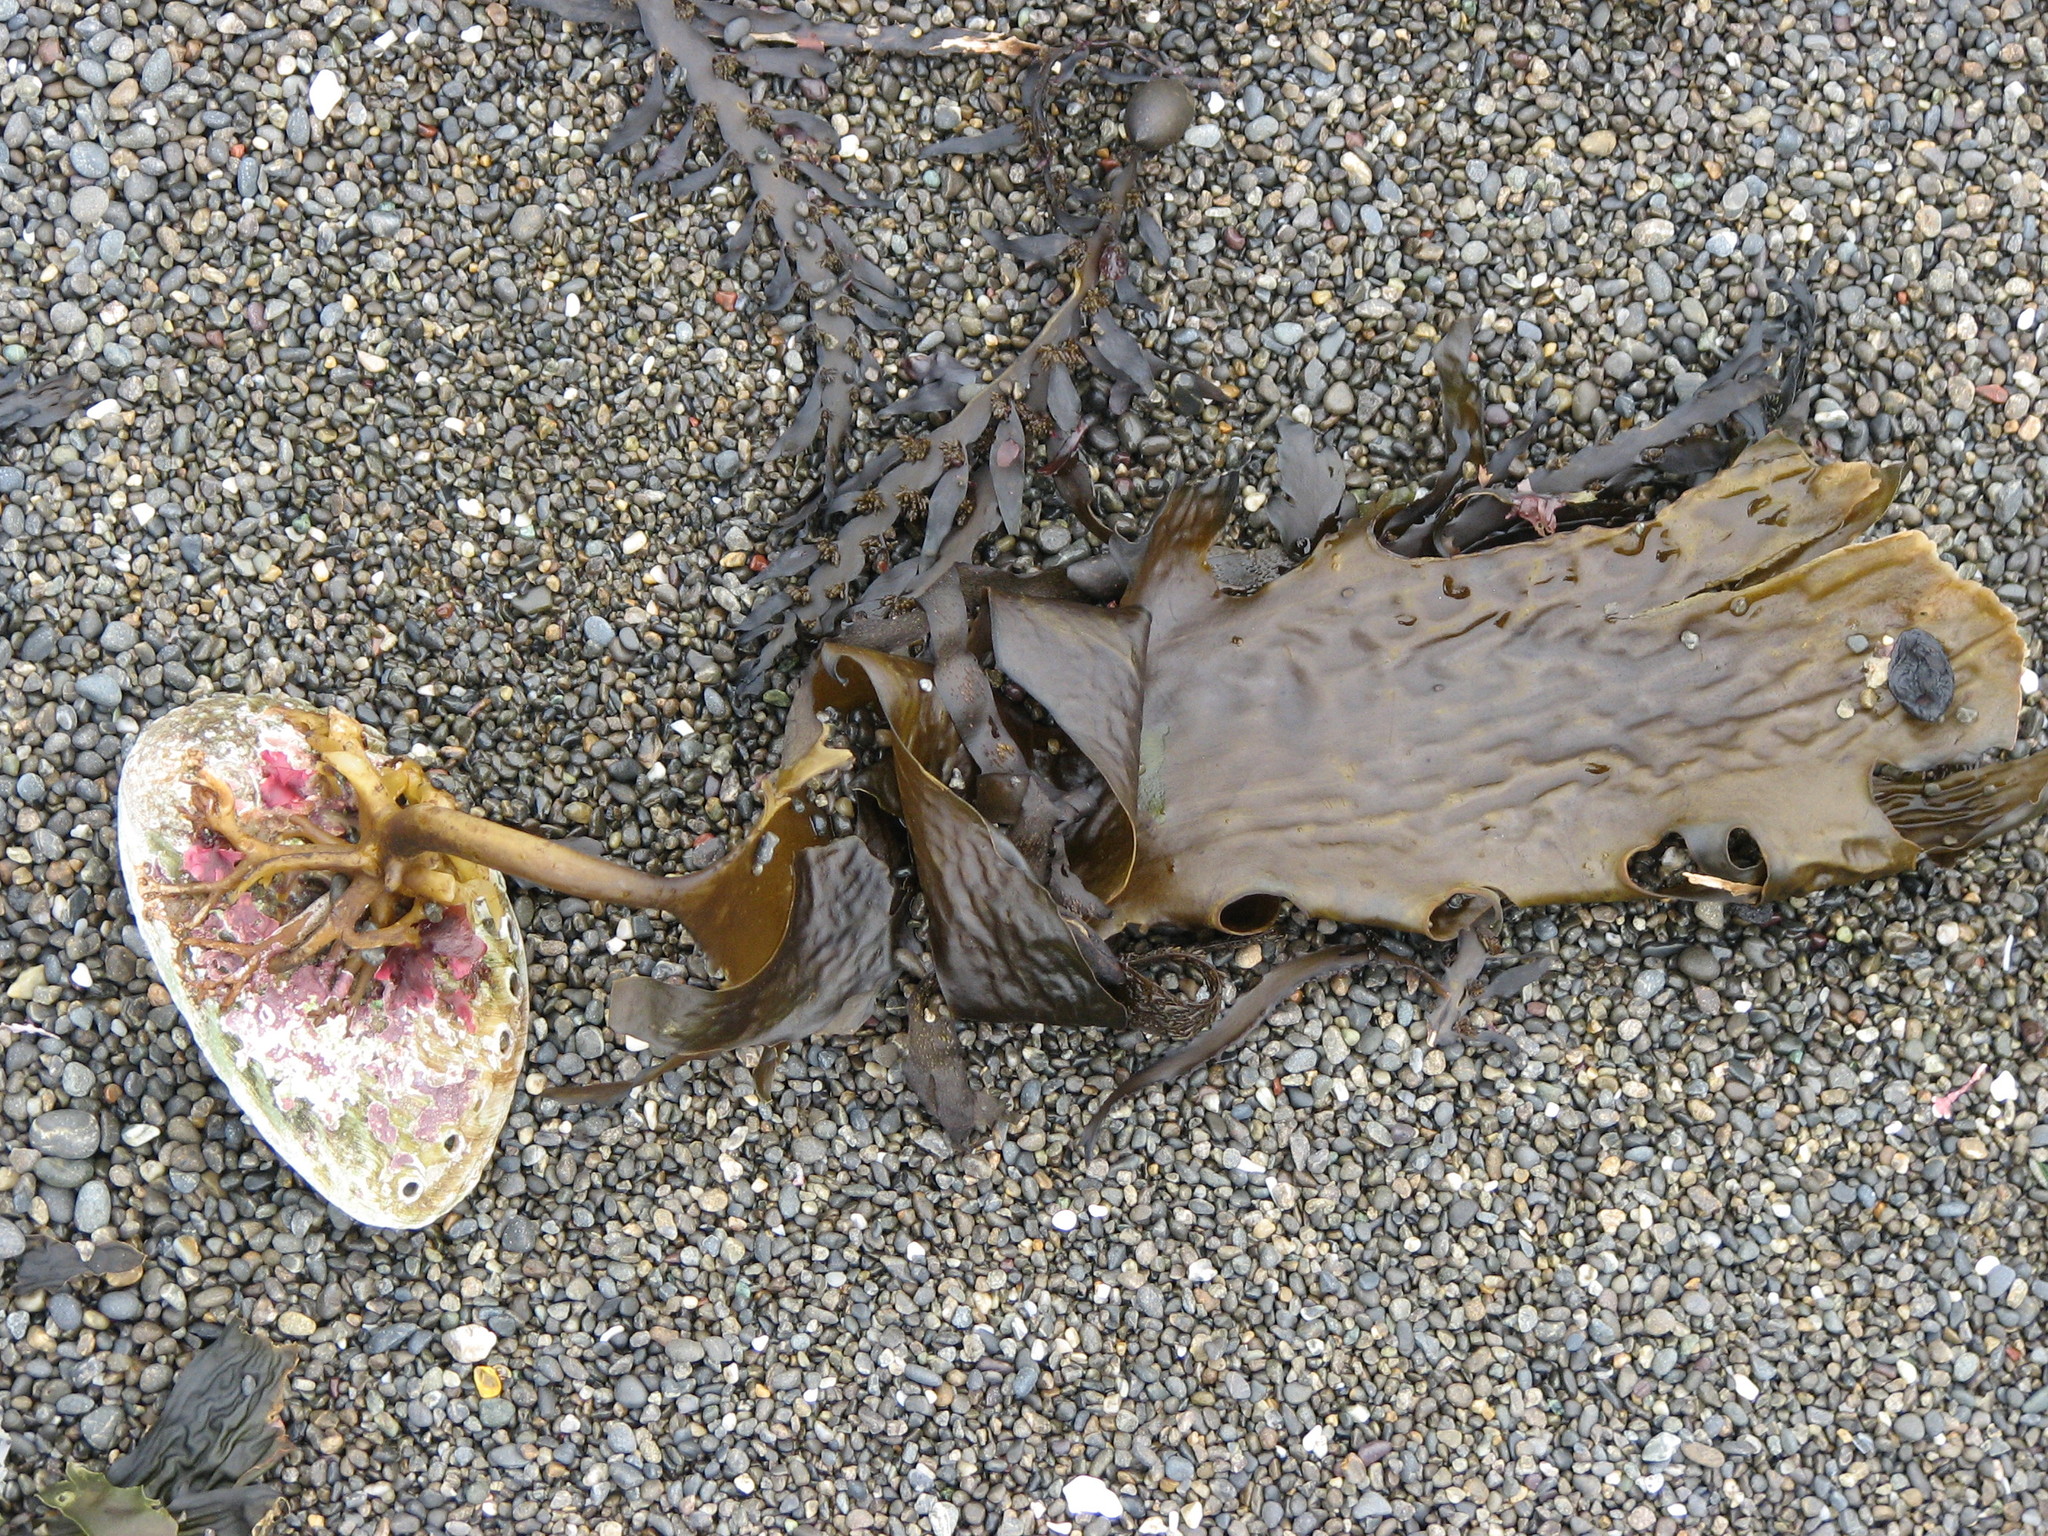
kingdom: Chromista
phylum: Ochrophyta
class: Phaeophyceae
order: Laminariales
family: Lessoniaceae
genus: Ecklonia
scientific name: Ecklonia radiata
